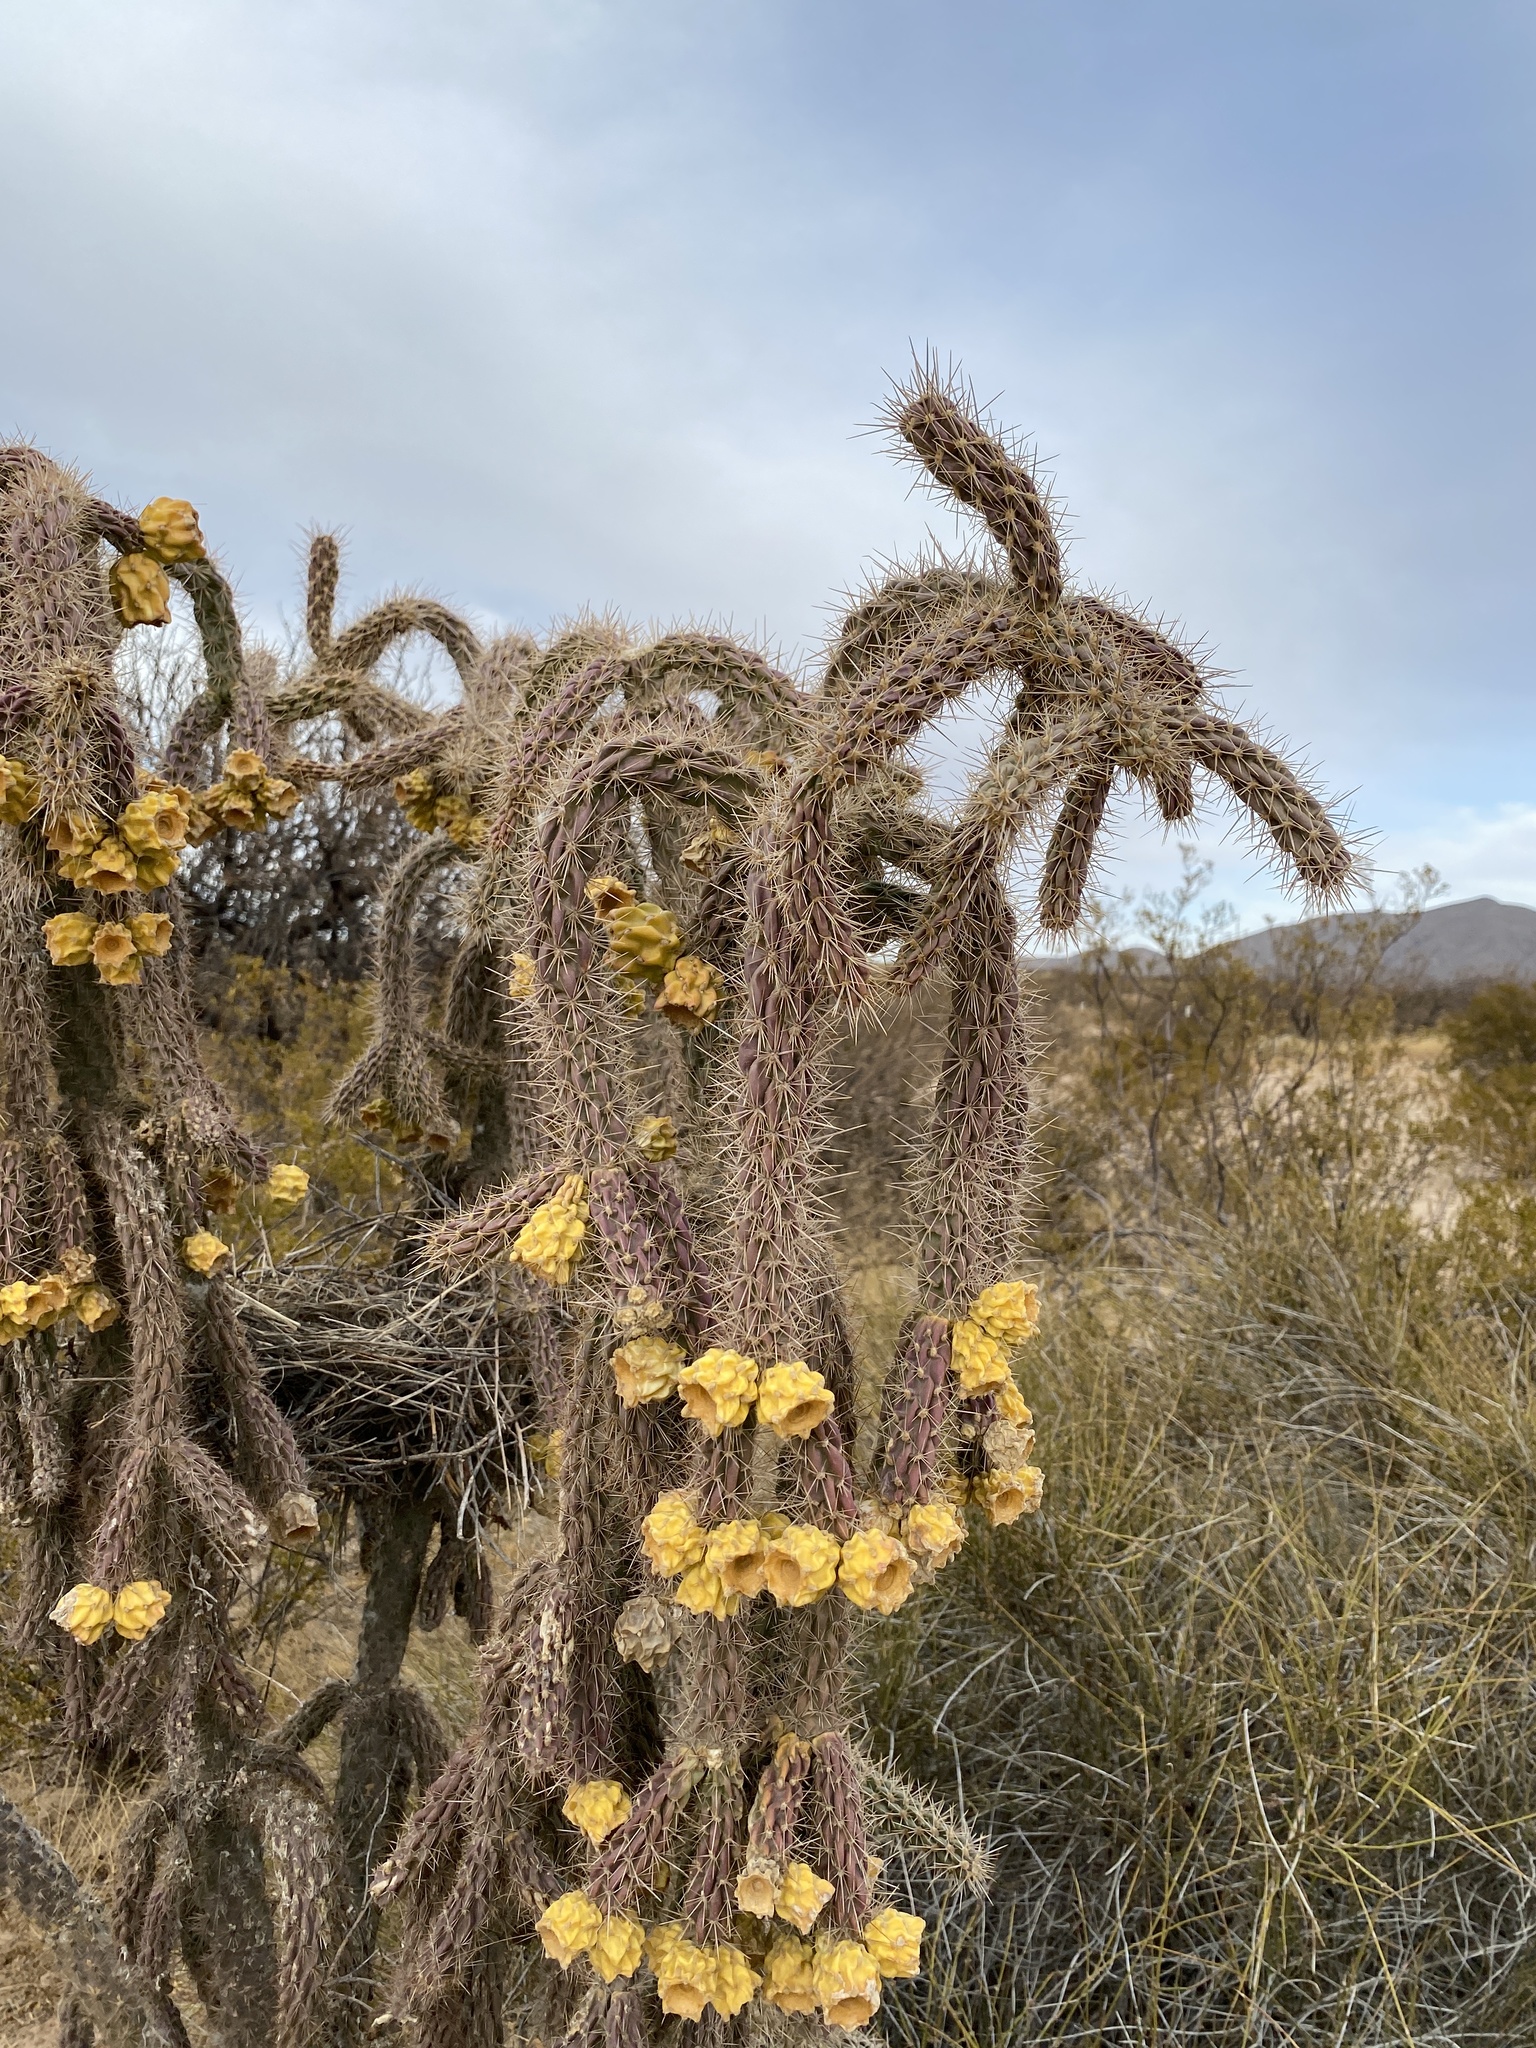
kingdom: Plantae
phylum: Tracheophyta
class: Magnoliopsida
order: Caryophyllales
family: Cactaceae
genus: Cylindropuntia
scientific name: Cylindropuntia imbricata
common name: Candelabrum cactus
